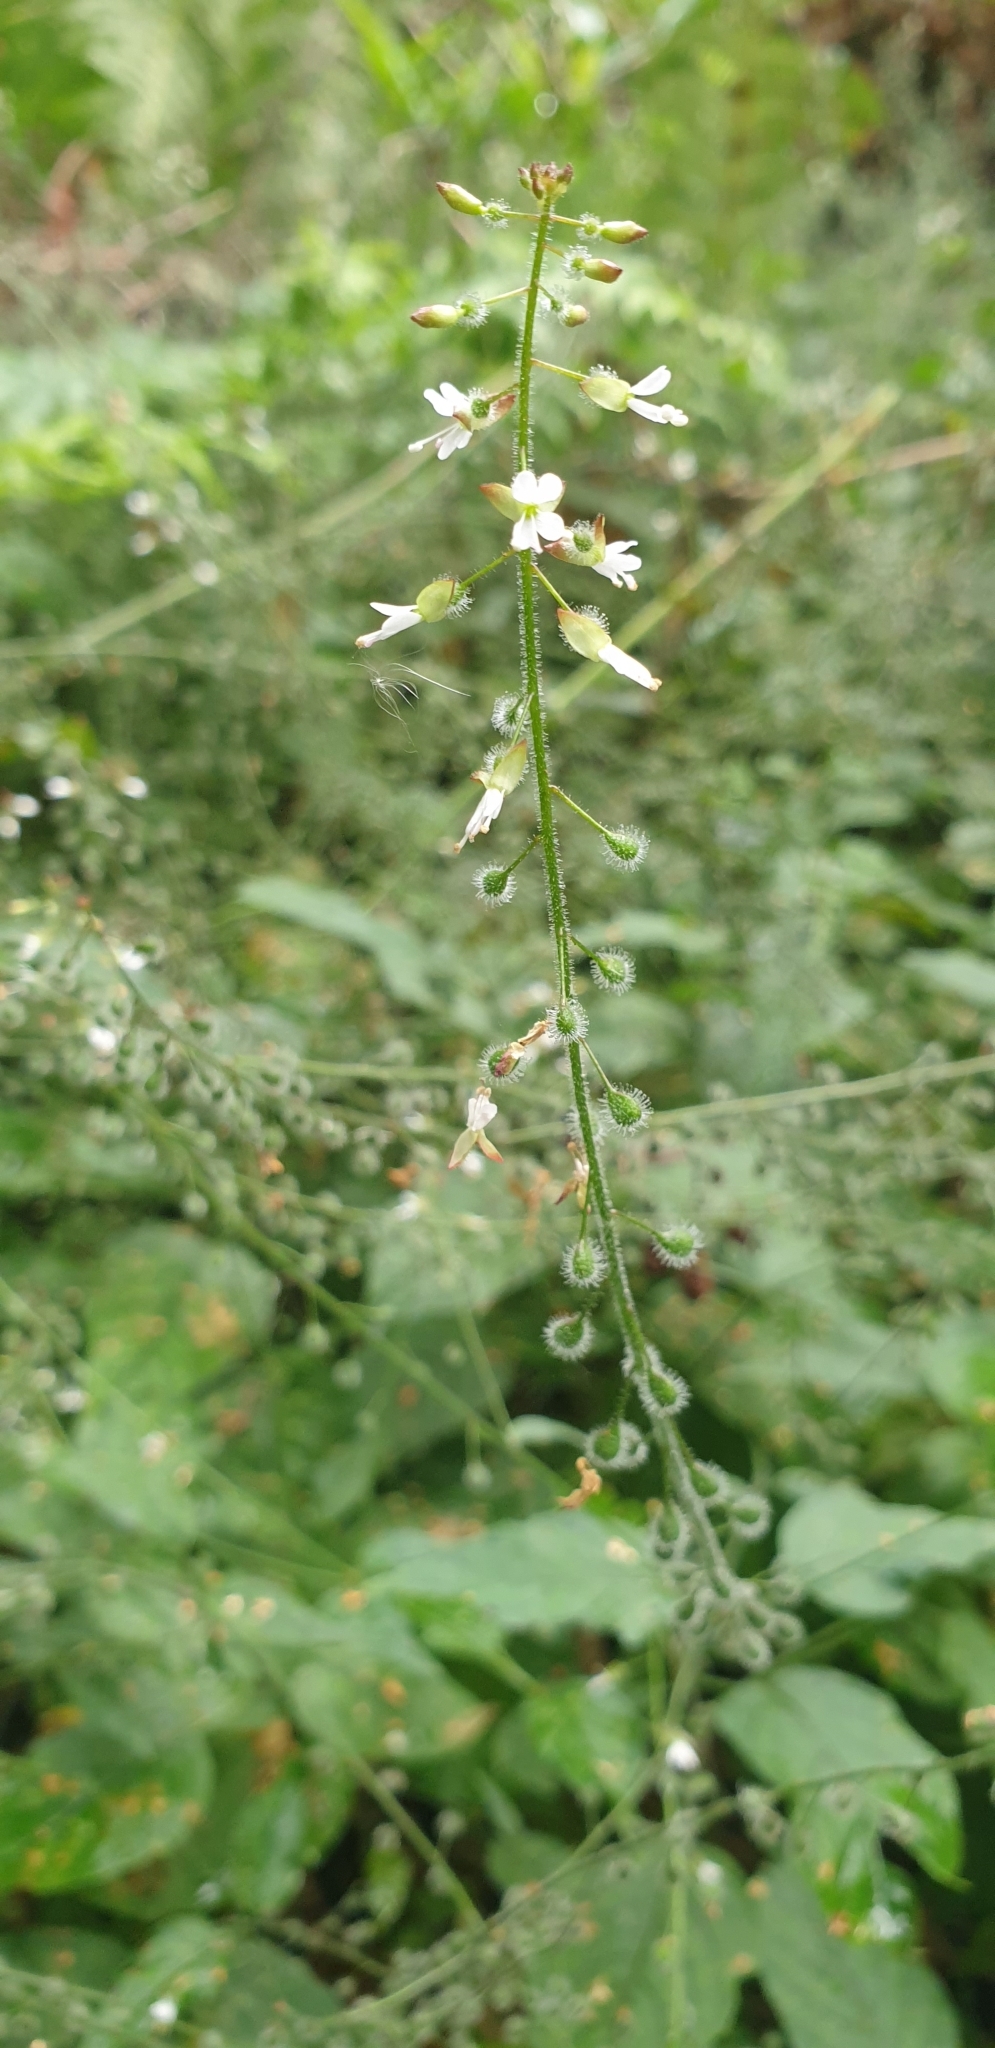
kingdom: Plantae
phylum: Tracheophyta
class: Magnoliopsida
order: Myrtales
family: Onagraceae
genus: Circaea
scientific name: Circaea lutetiana
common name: Enchanter's-nightshade
